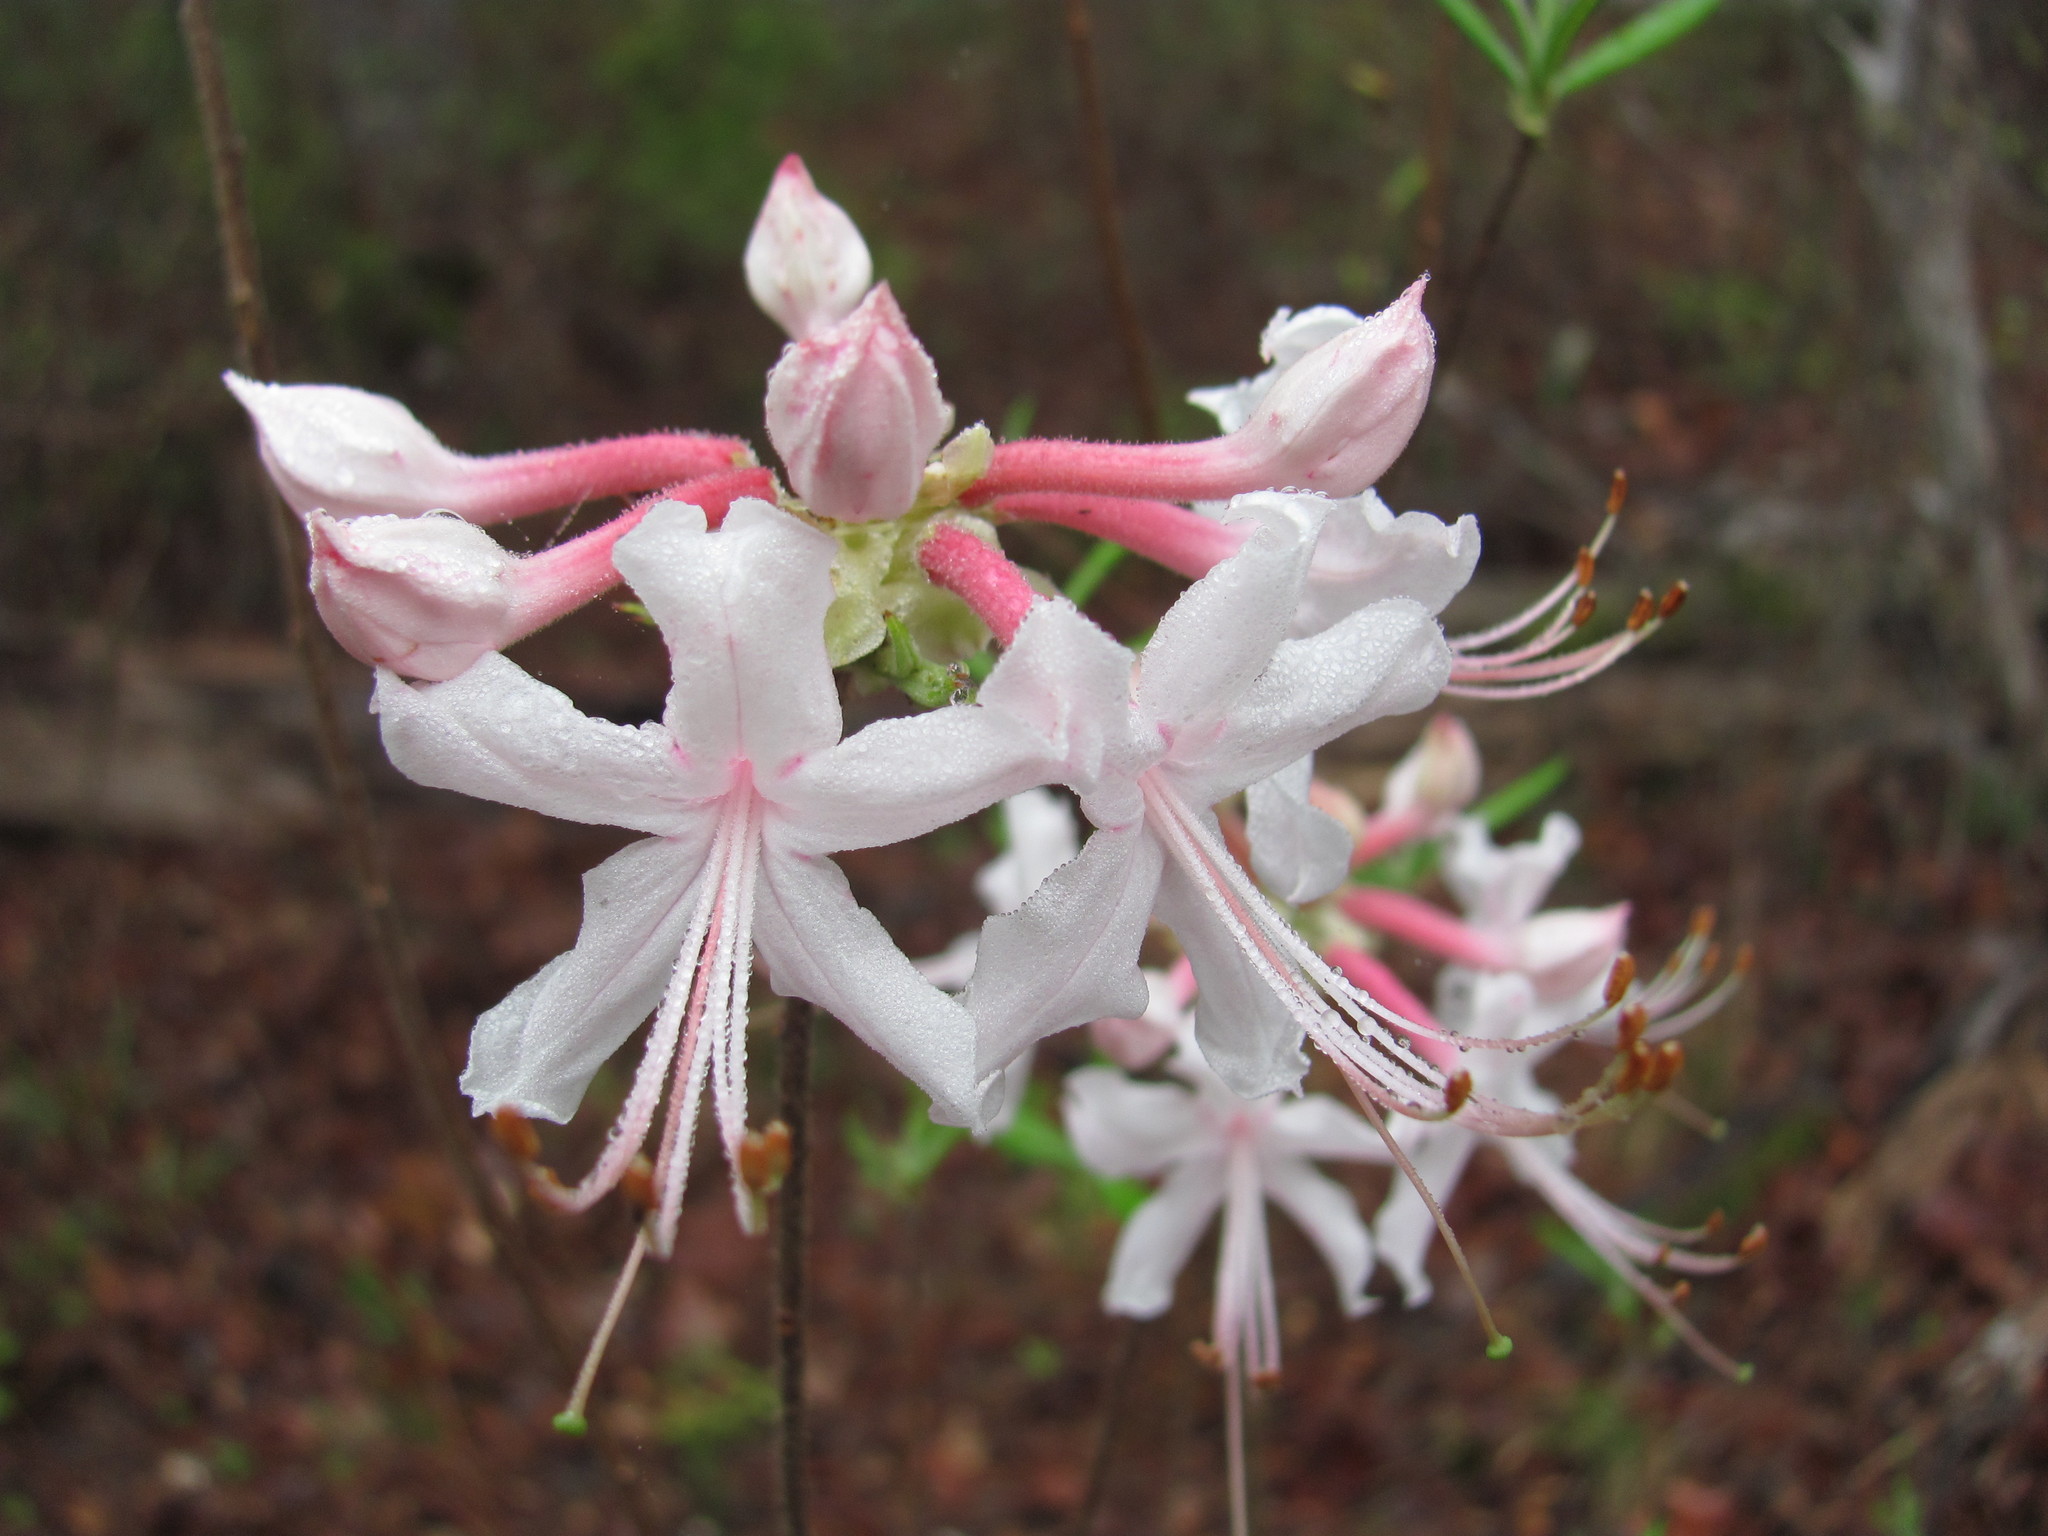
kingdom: Plantae
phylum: Tracheophyta
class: Magnoliopsida
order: Ericales
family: Ericaceae
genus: Rhododendron
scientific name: Rhododendron canescens
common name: Mountain azalea
